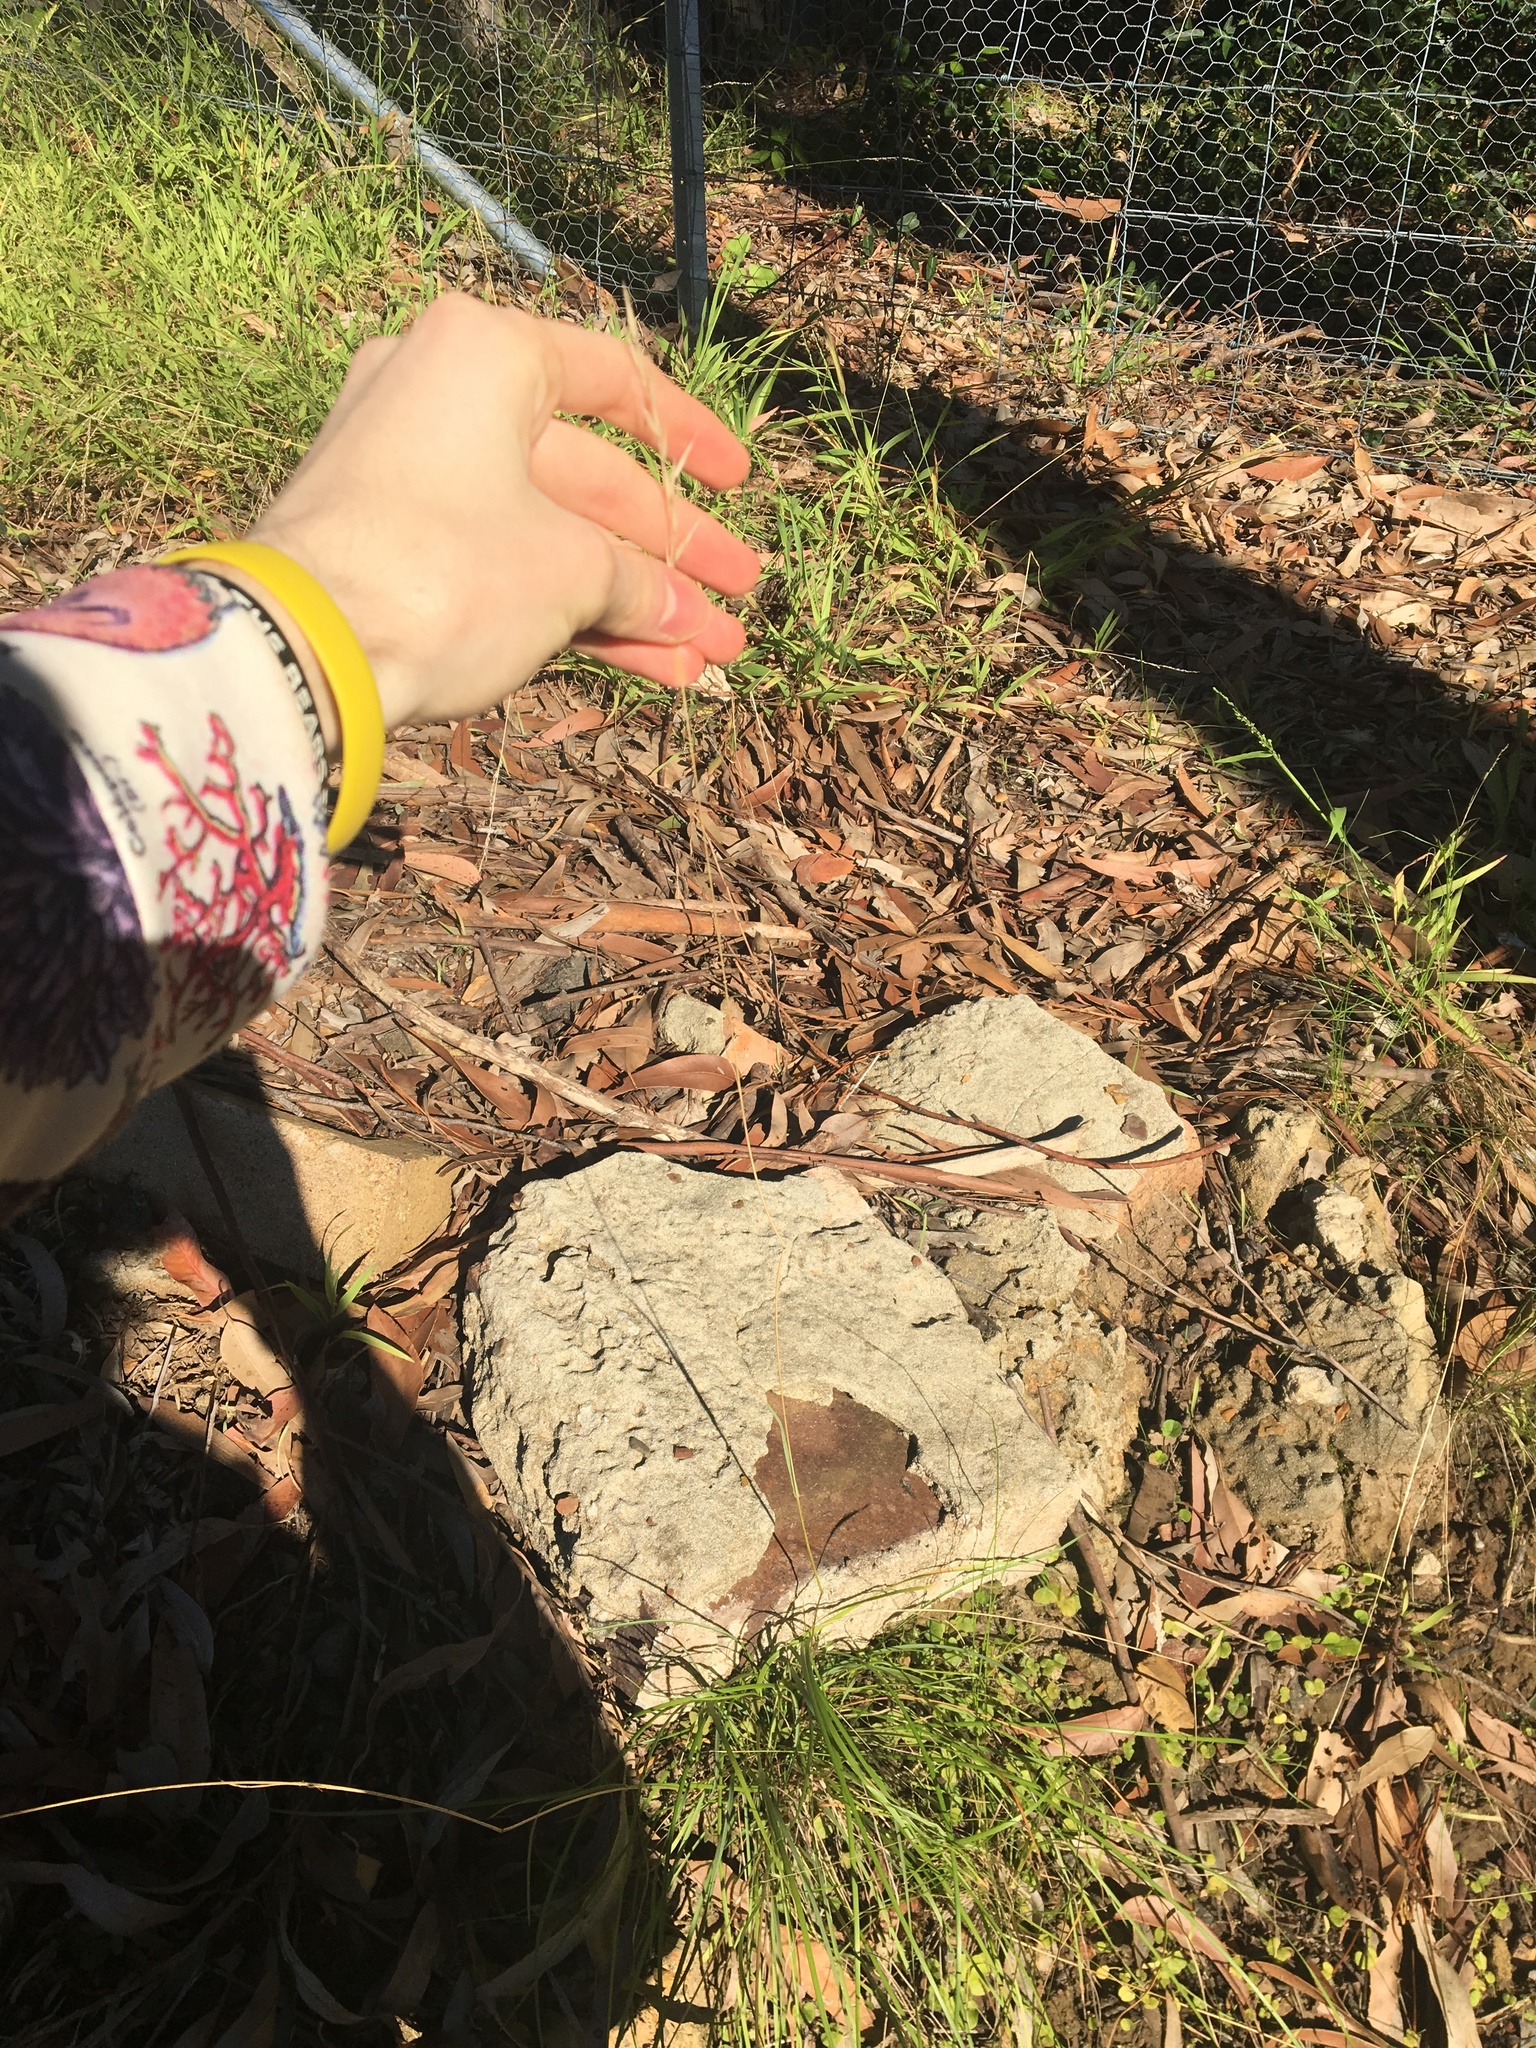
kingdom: Plantae
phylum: Tracheophyta
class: Liliopsida
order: Poales
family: Poaceae
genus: Rytidosperma
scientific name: Rytidosperma
